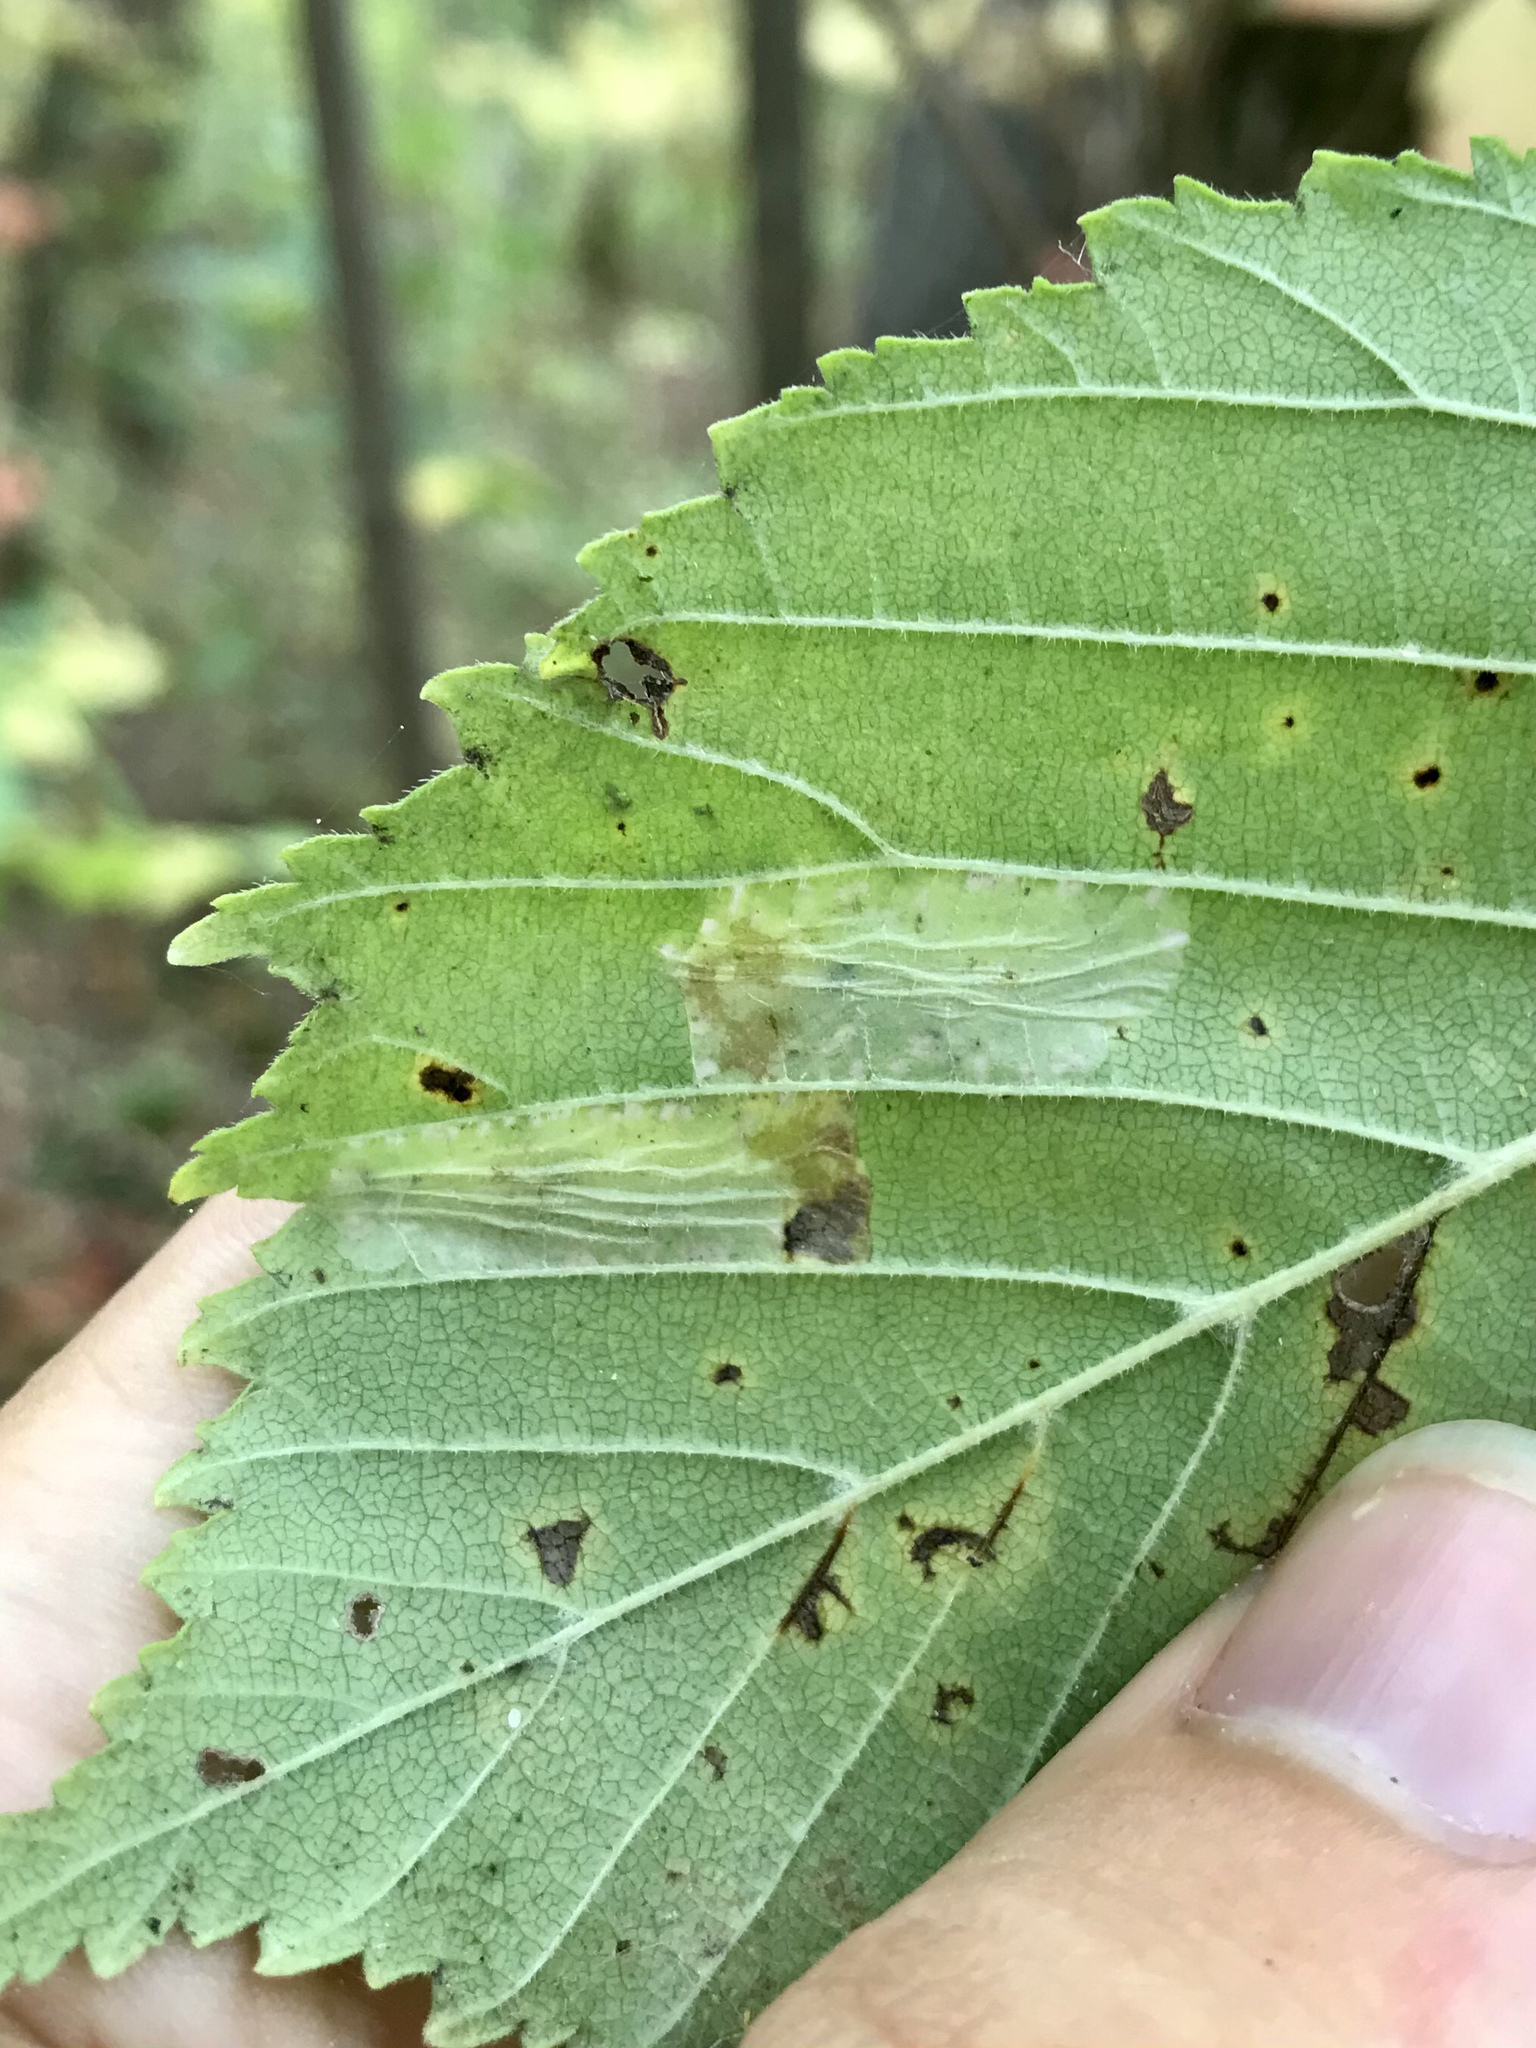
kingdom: Animalia
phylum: Arthropoda
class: Insecta
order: Lepidoptera
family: Gracillariidae
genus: Phyllonorycter
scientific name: Phyllonorycter argentinotella
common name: Golden elm leafminer
